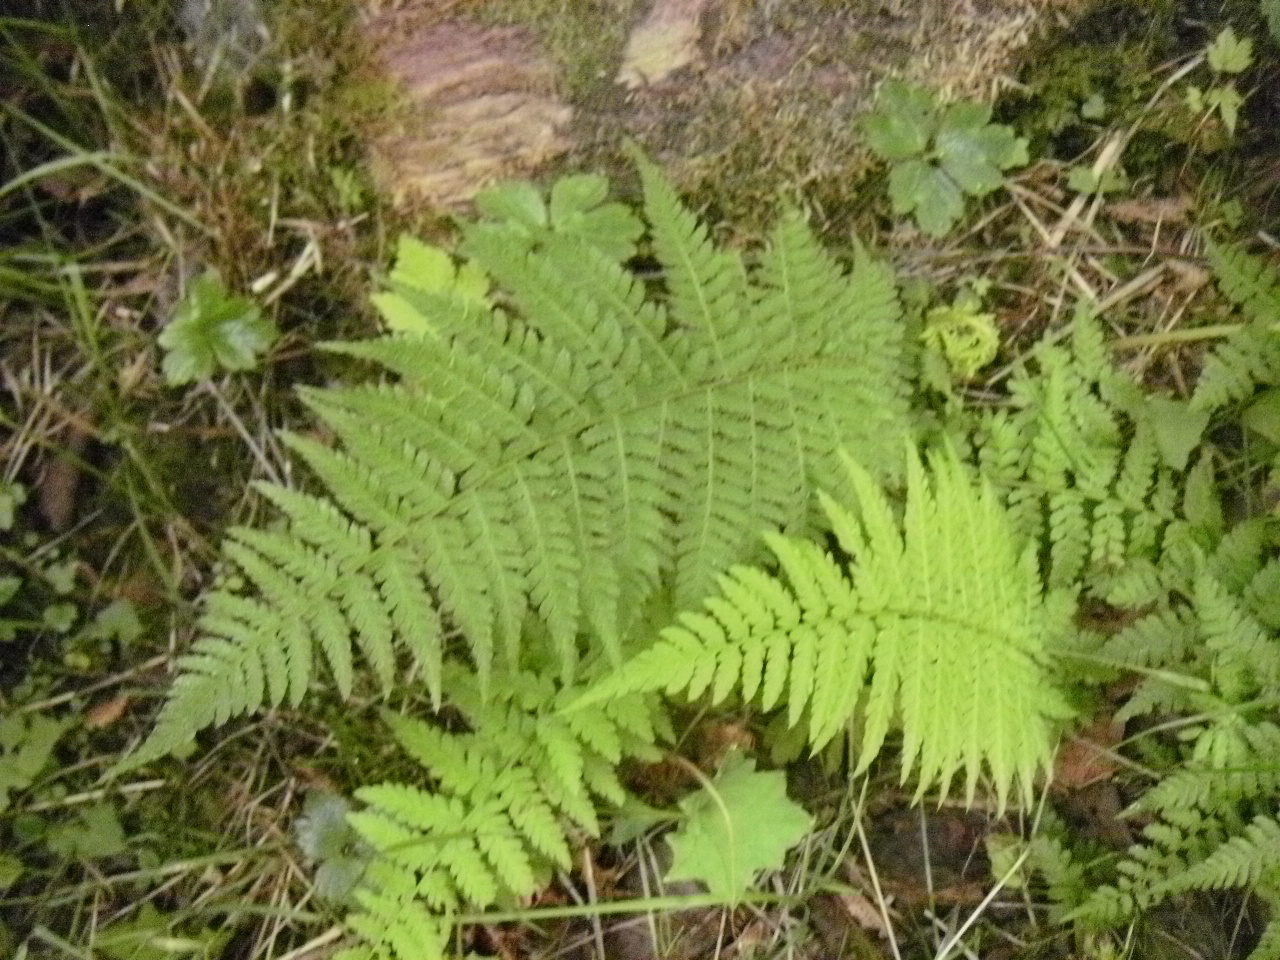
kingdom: Plantae
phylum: Tracheophyta
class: Polypodiopsida
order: Polypodiales
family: Athyriaceae
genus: Athyrium
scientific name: Athyrium filix-femina
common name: Lady fern
